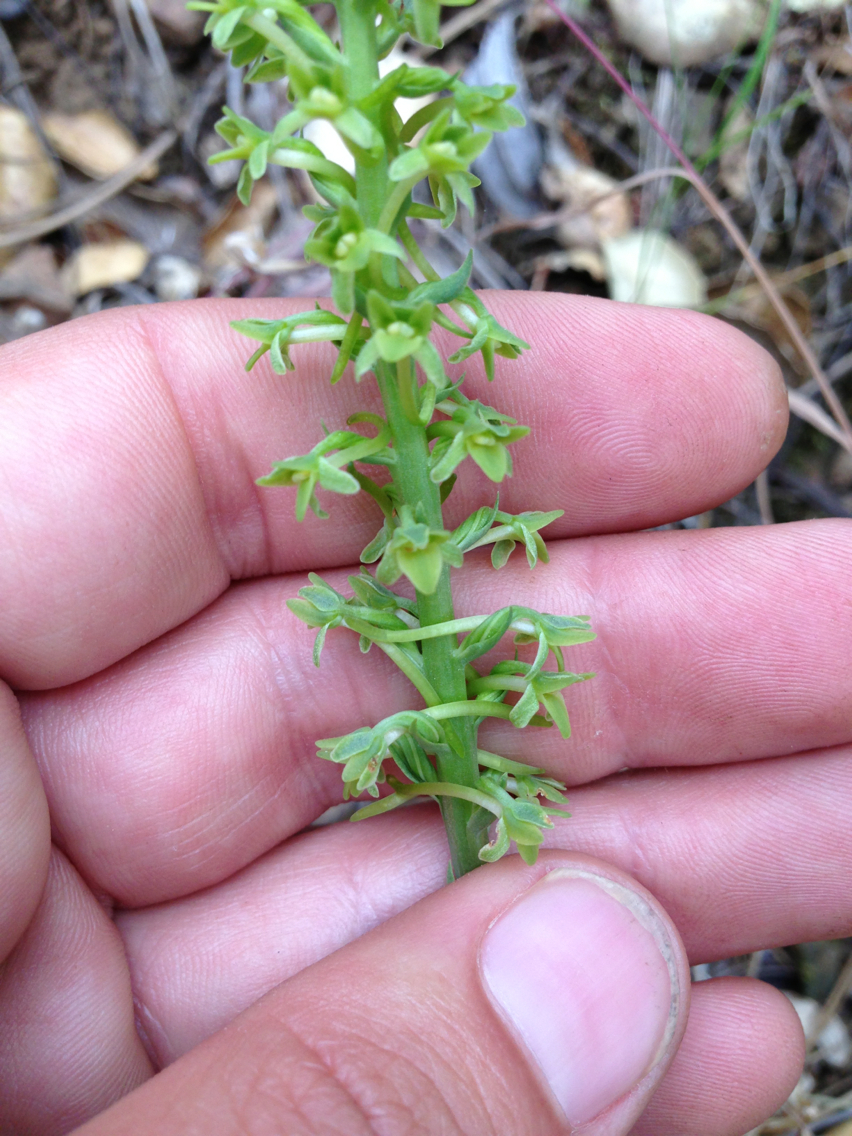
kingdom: Plantae
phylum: Tracheophyta
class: Liliopsida
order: Asparagales
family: Orchidaceae
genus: Platanthera
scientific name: Platanthera michaelii
